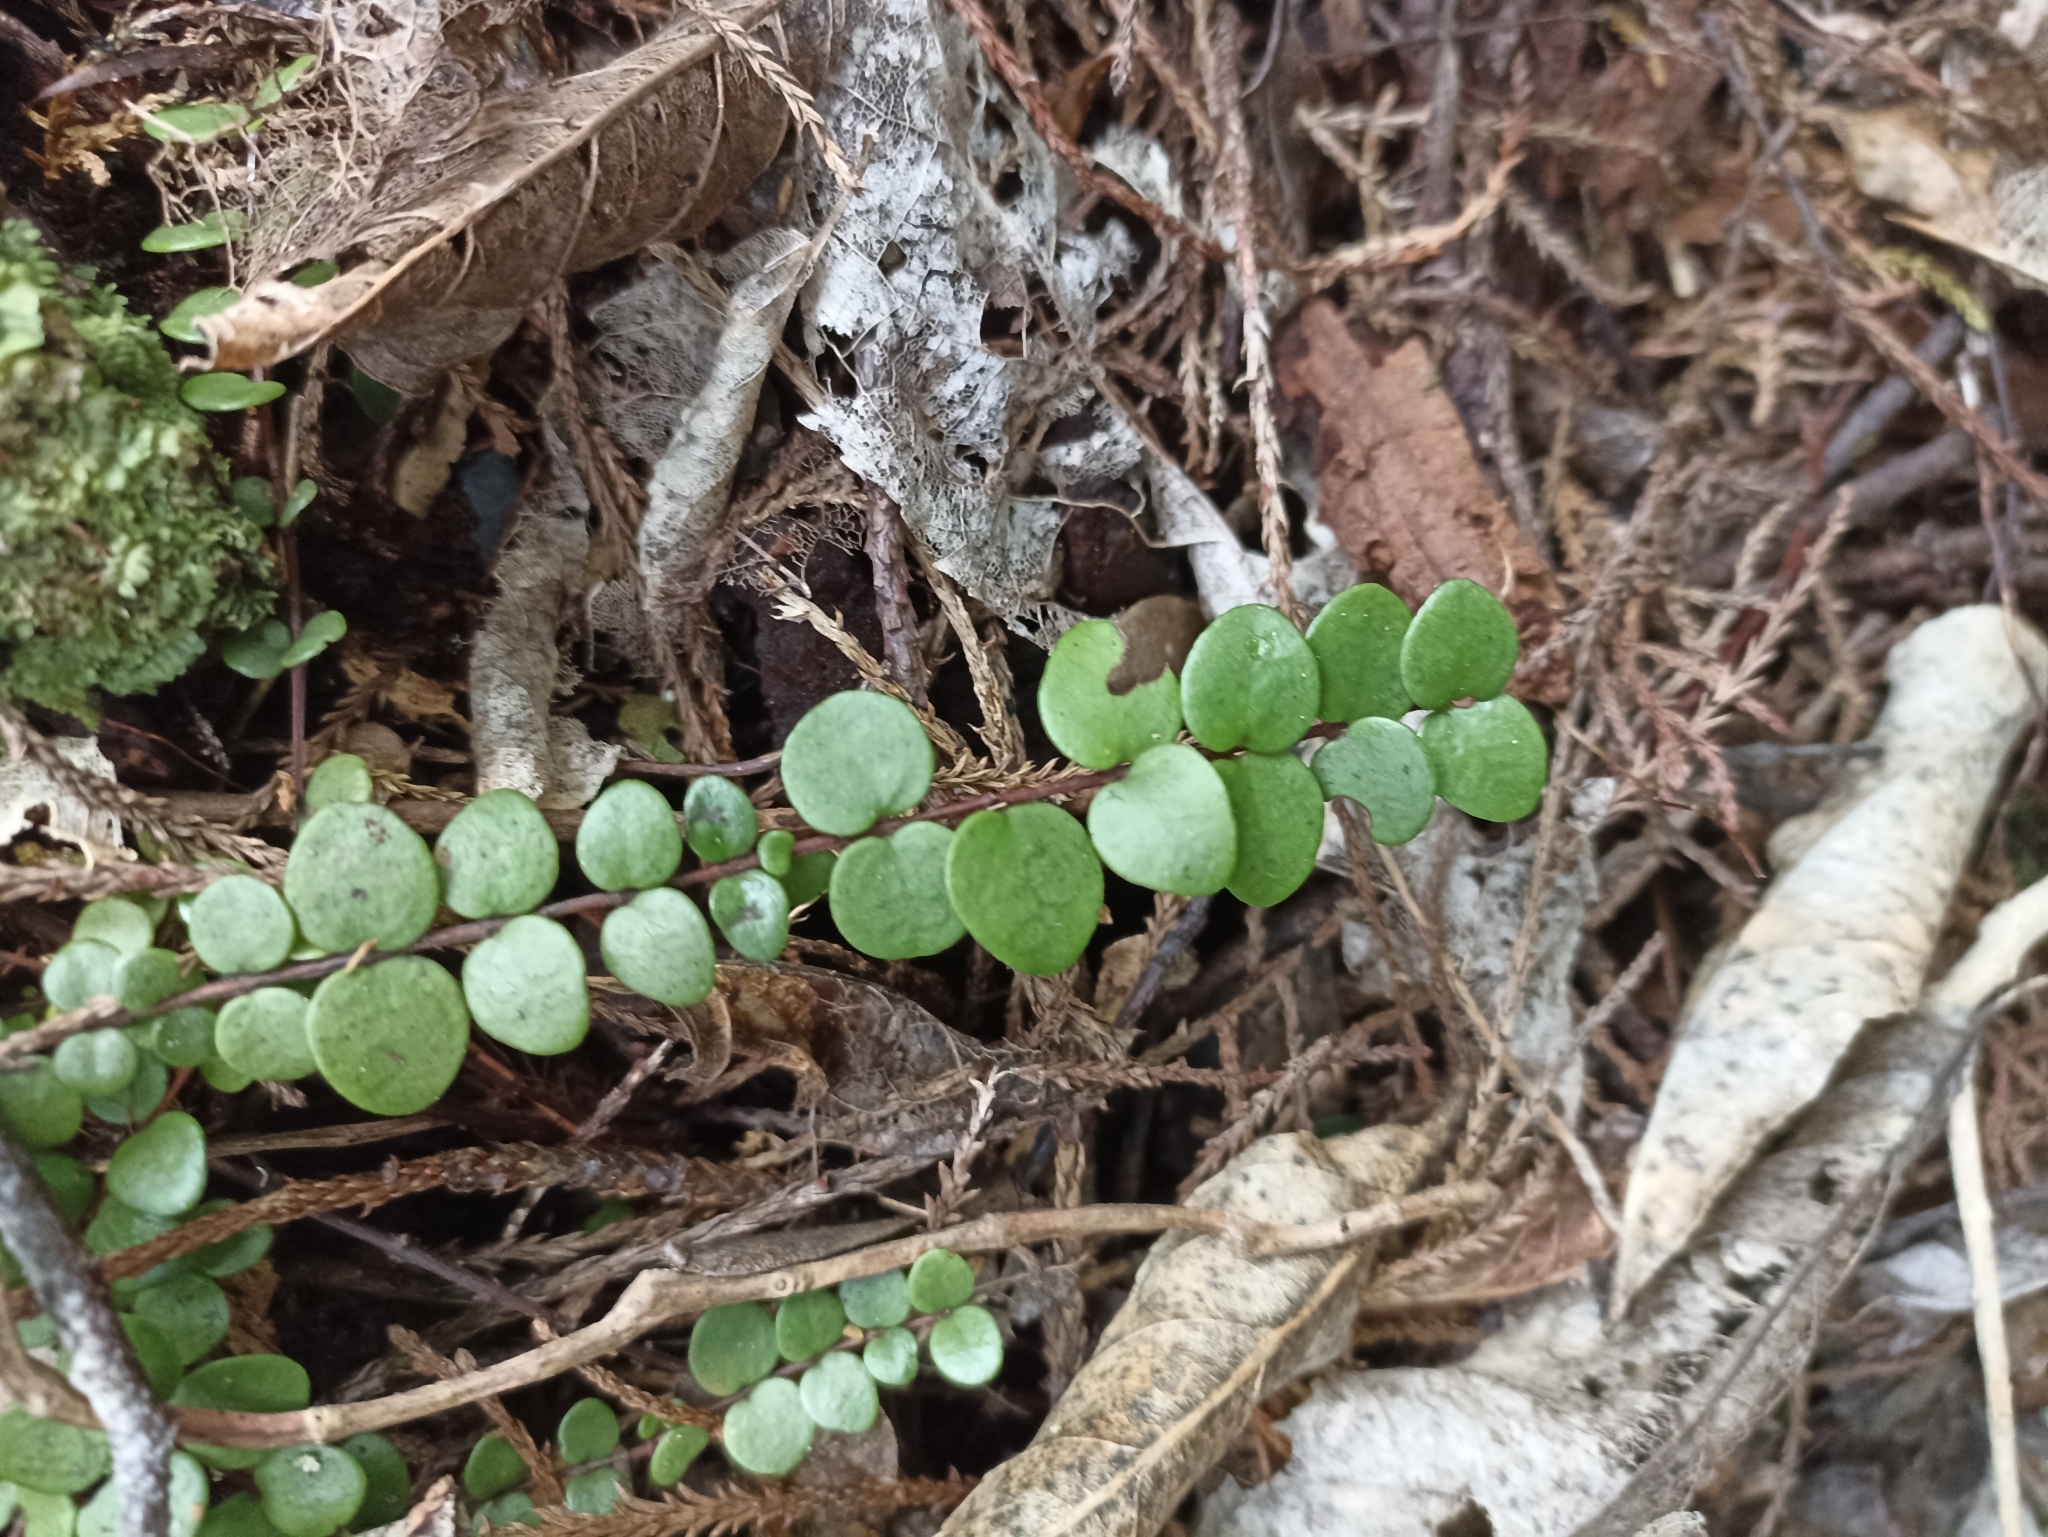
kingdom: Plantae
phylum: Tracheophyta
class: Magnoliopsida
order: Myrtales
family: Myrtaceae
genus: Metrosideros
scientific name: Metrosideros perforata
